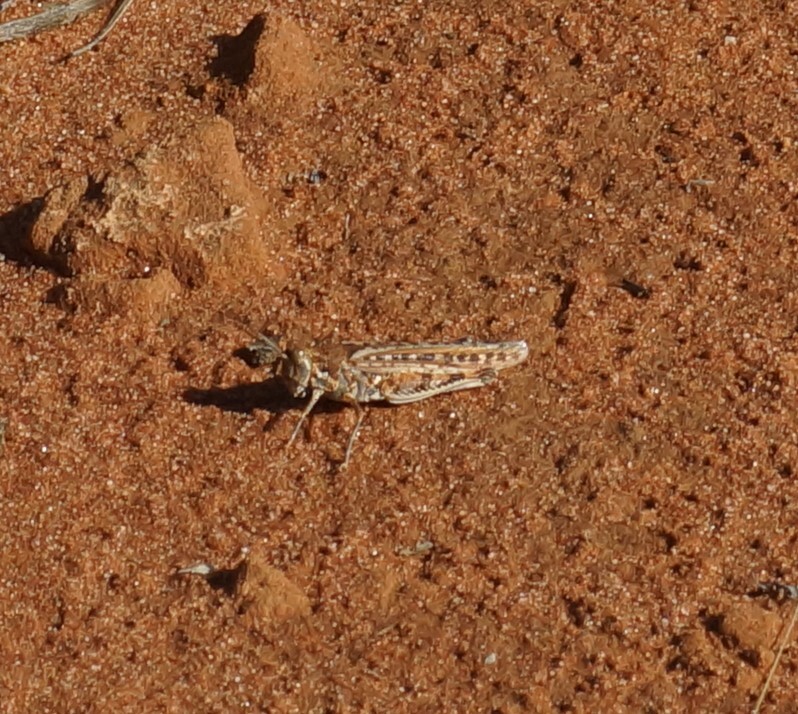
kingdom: Animalia
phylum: Arthropoda
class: Insecta
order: Orthoptera
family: Acrididae
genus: Urnisa
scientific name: Urnisa guttulosa
